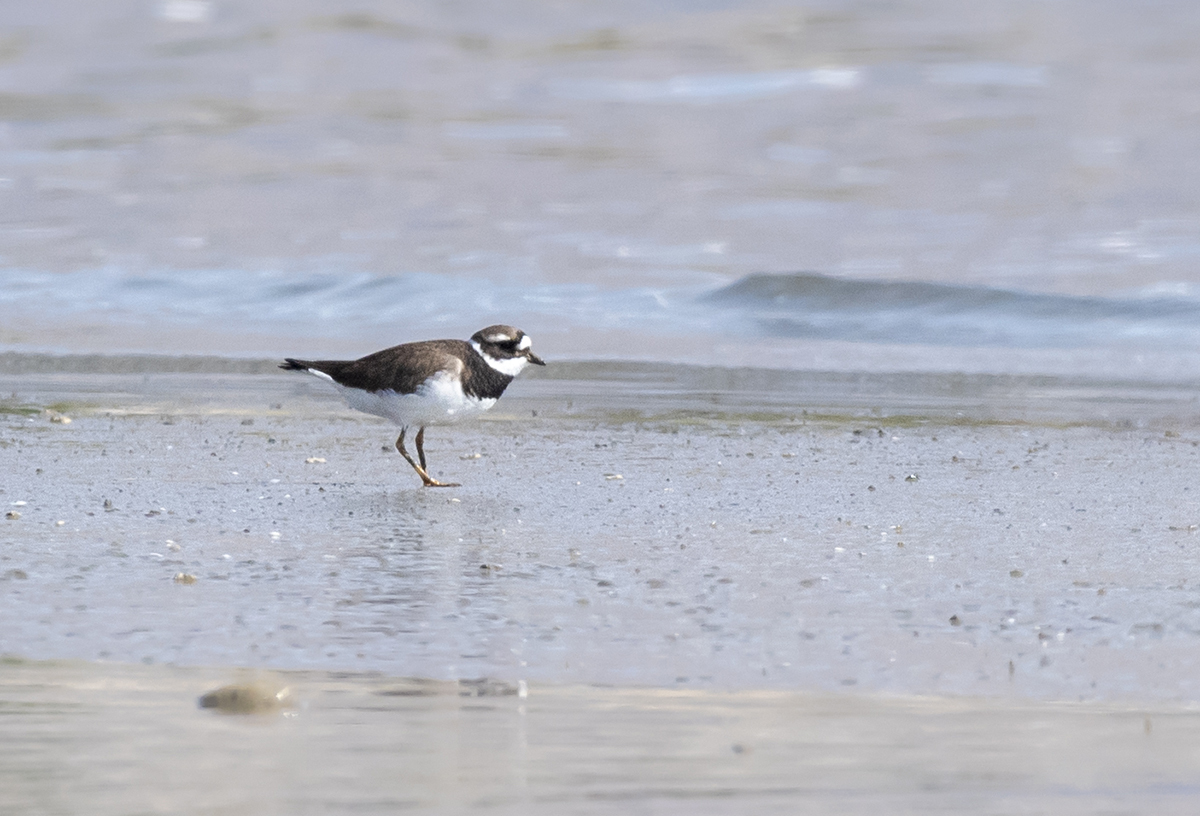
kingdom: Animalia
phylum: Chordata
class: Aves
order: Charadriiformes
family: Charadriidae
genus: Charadrius
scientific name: Charadrius hiaticula
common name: Common ringed plover
